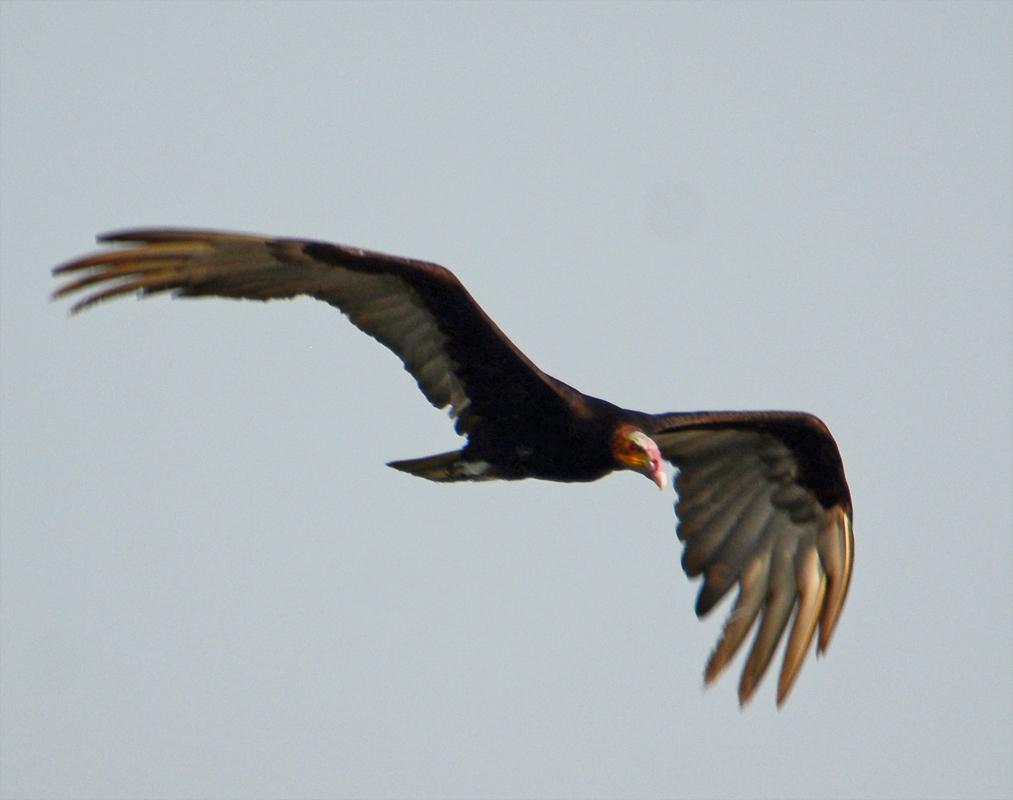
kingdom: Animalia
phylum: Chordata
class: Aves
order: Accipitriformes
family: Cathartidae
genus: Cathartes
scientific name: Cathartes burrovianus
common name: Lesser yellow-headed vulture
